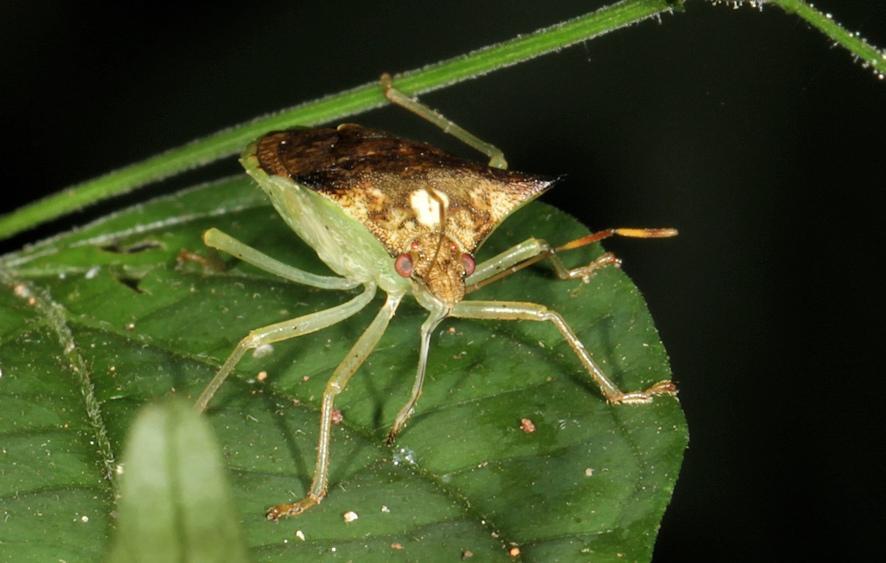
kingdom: Animalia
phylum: Arthropoda
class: Insecta
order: Hemiptera
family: Tropiduchidae
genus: Lerida
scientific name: Lerida
